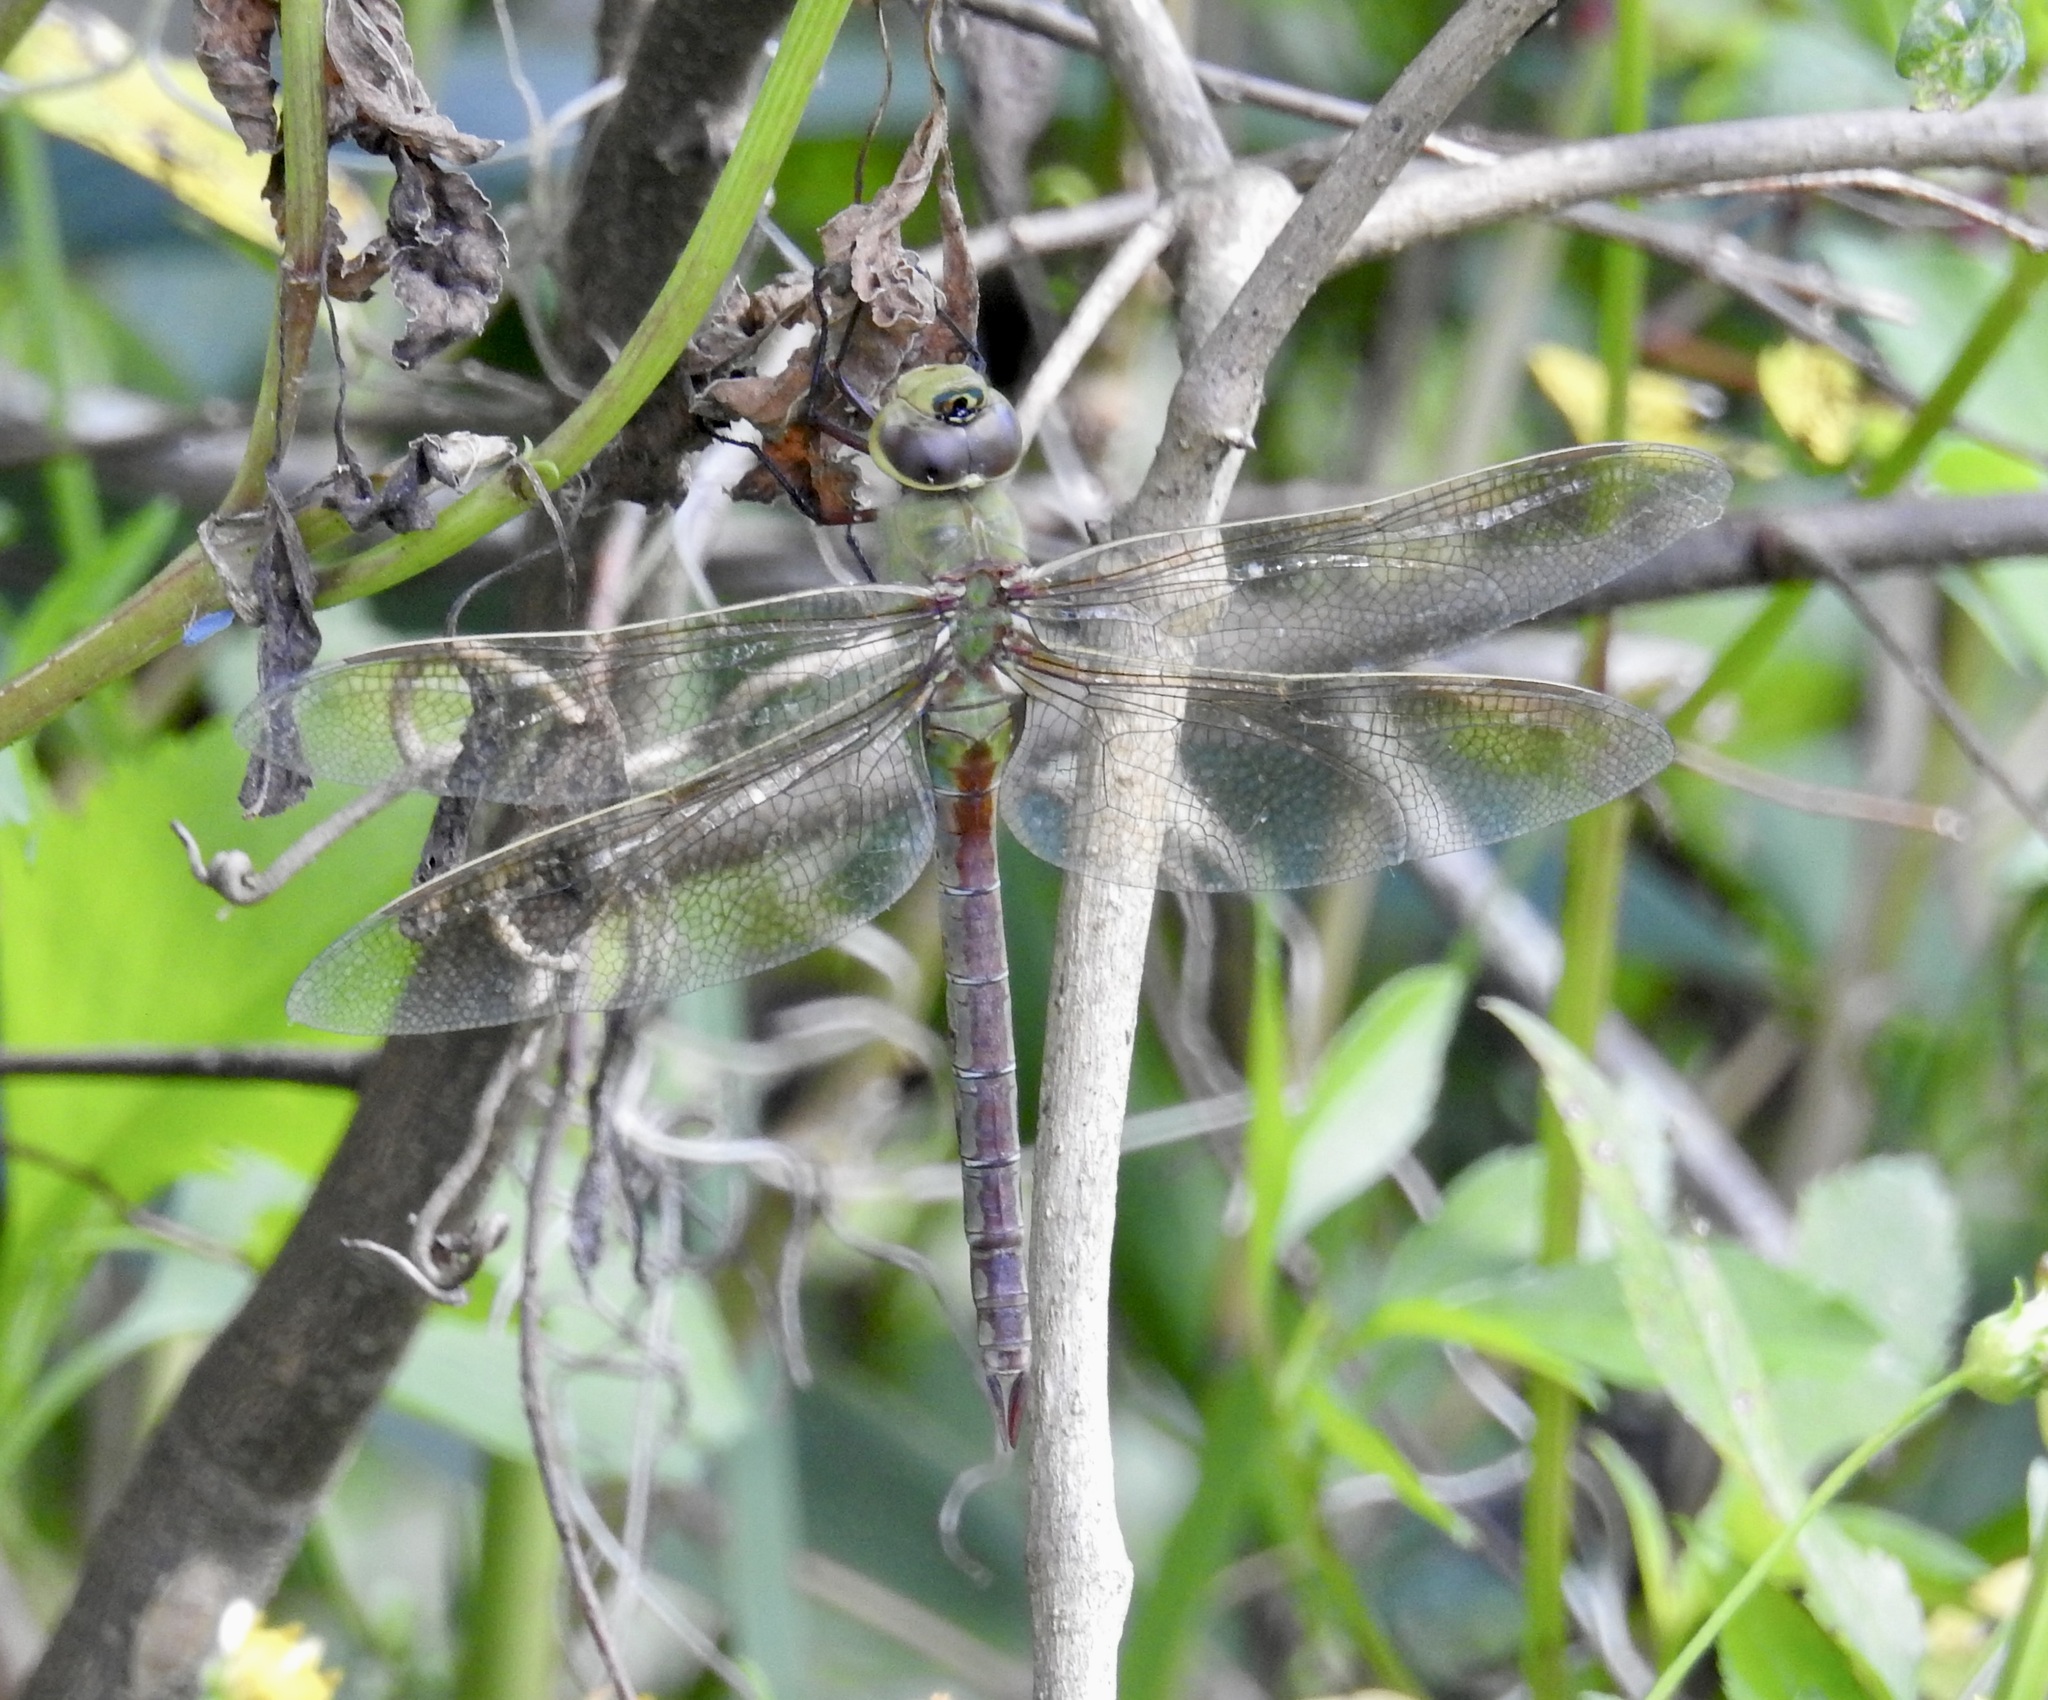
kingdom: Animalia
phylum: Arthropoda
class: Insecta
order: Odonata
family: Aeshnidae
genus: Anax
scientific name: Anax junius
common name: Common green darner
